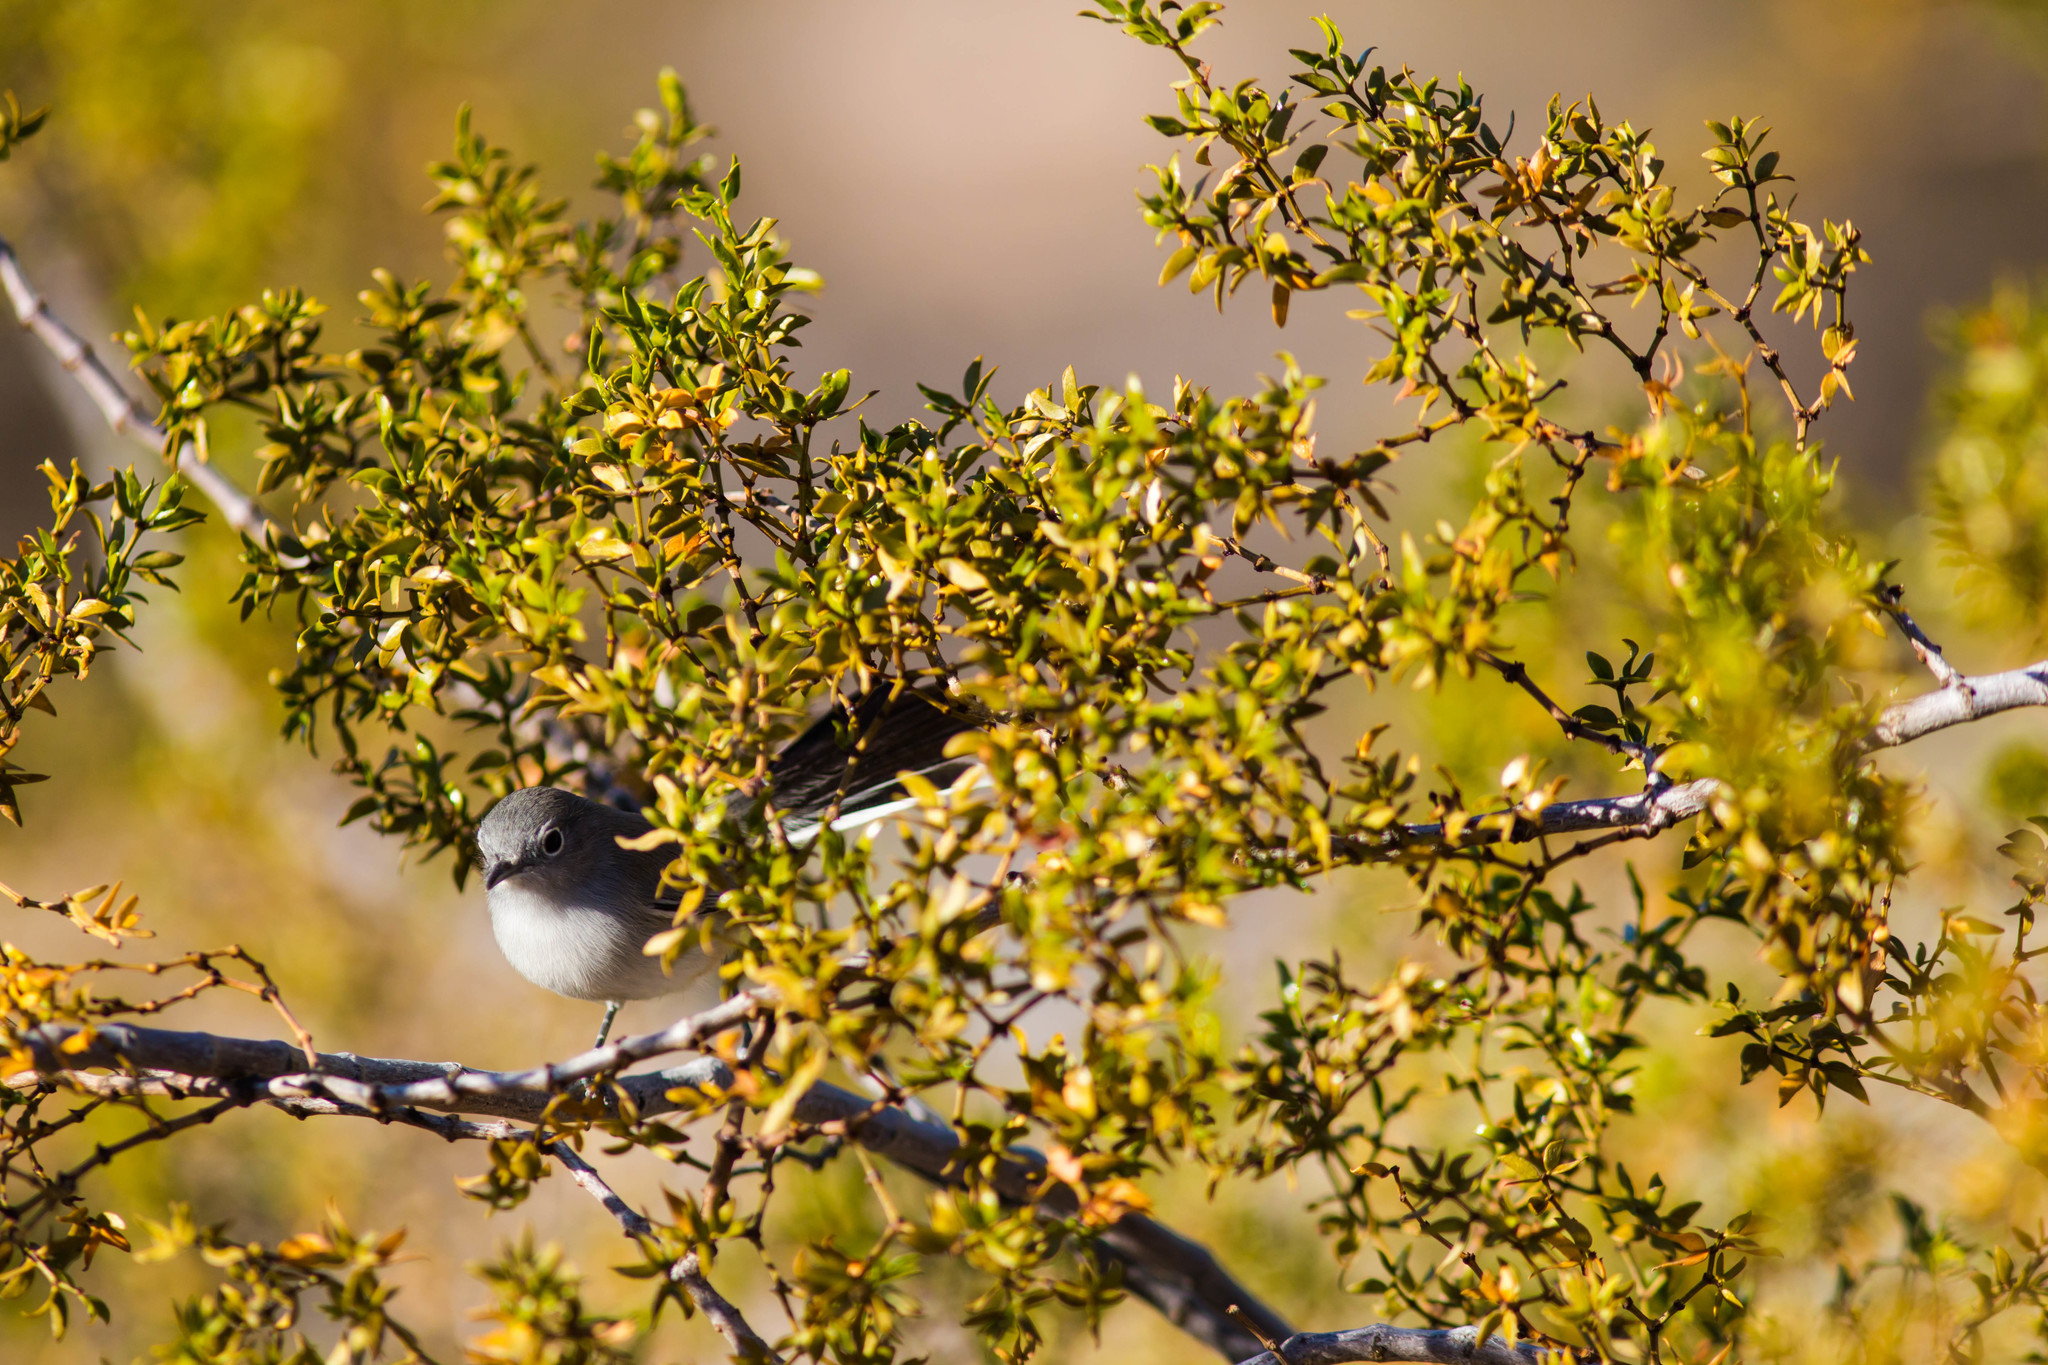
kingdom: Animalia
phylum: Chordata
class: Aves
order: Passeriformes
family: Polioptilidae
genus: Polioptila
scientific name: Polioptila melanura
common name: Black-tailed gnatcatcher
